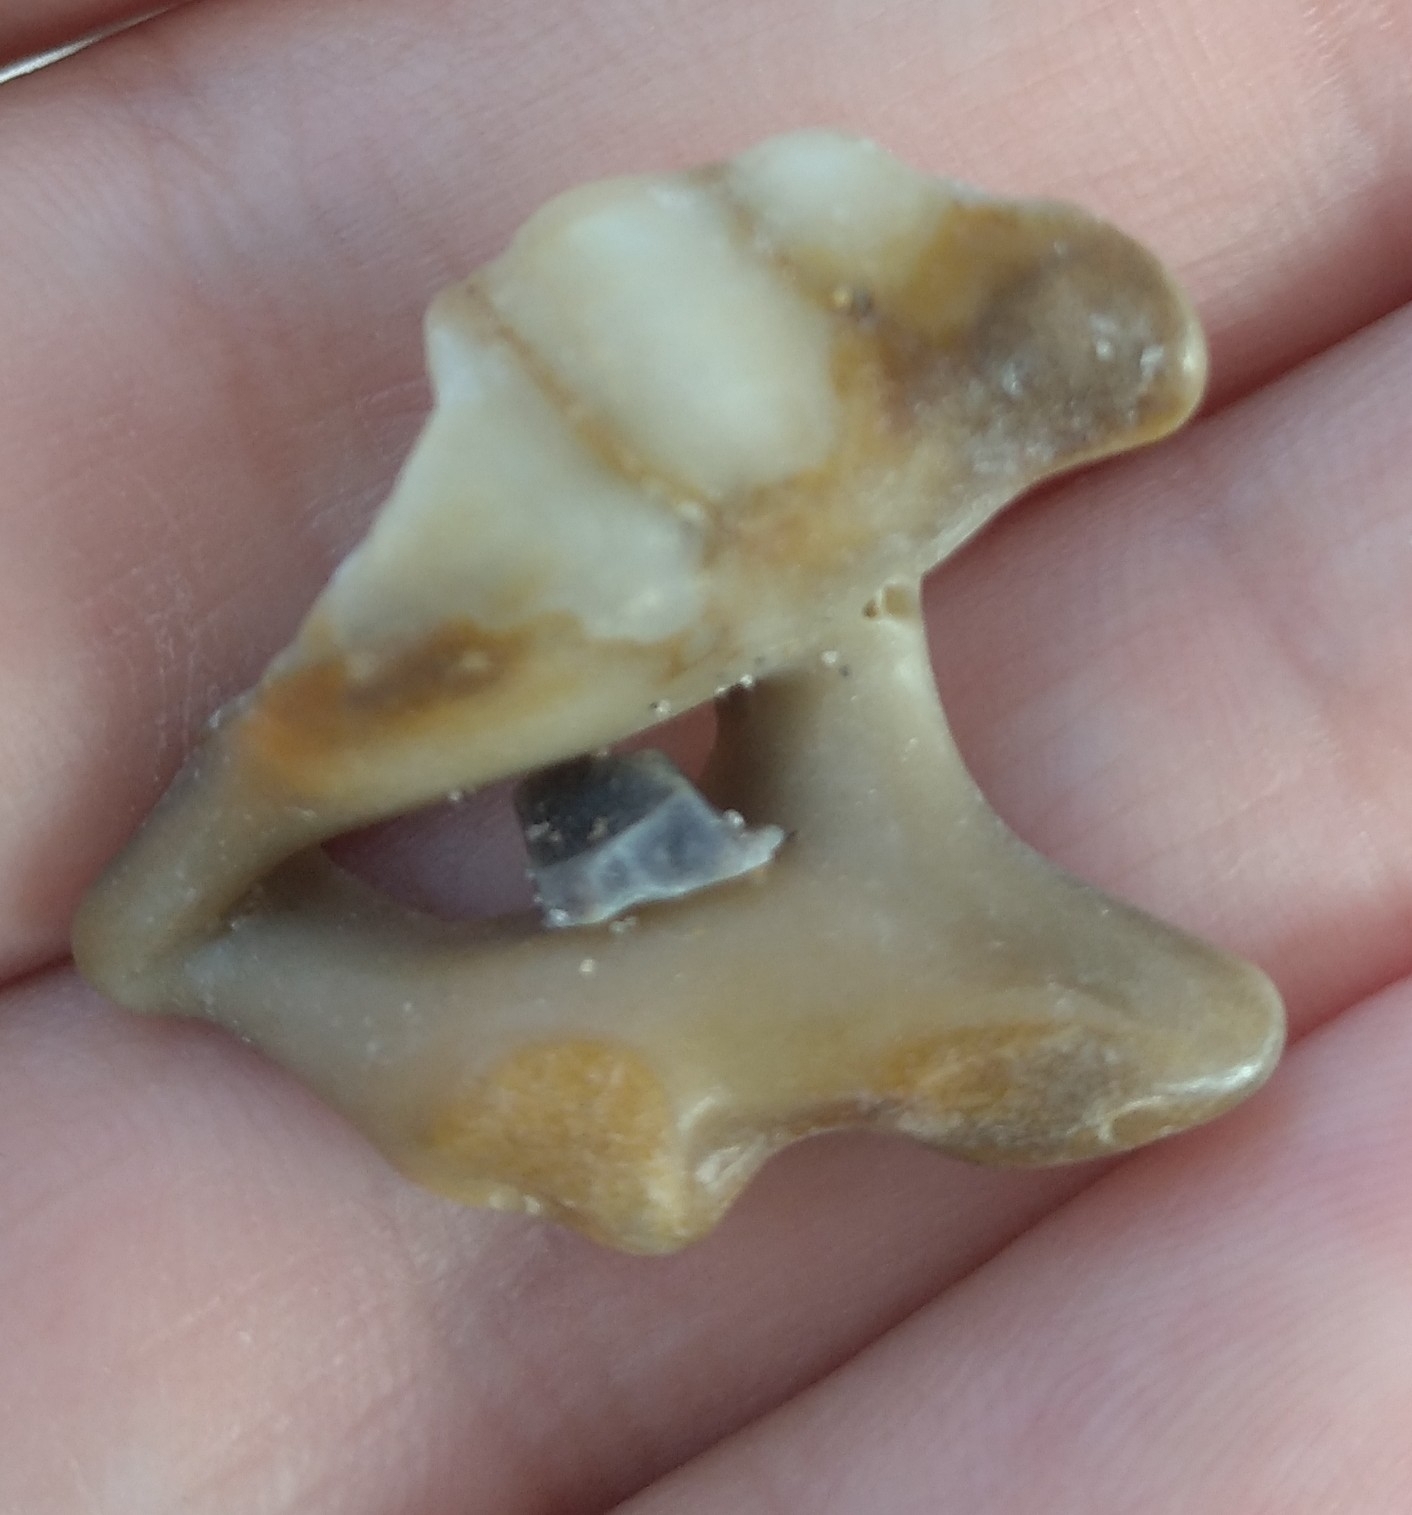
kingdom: Animalia
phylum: Mollusca
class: Gastropoda
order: Littorinimorpha
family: Aporrhaidae
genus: Aporrhais
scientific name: Aporrhais pespelecani
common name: Common pelican’s foot
